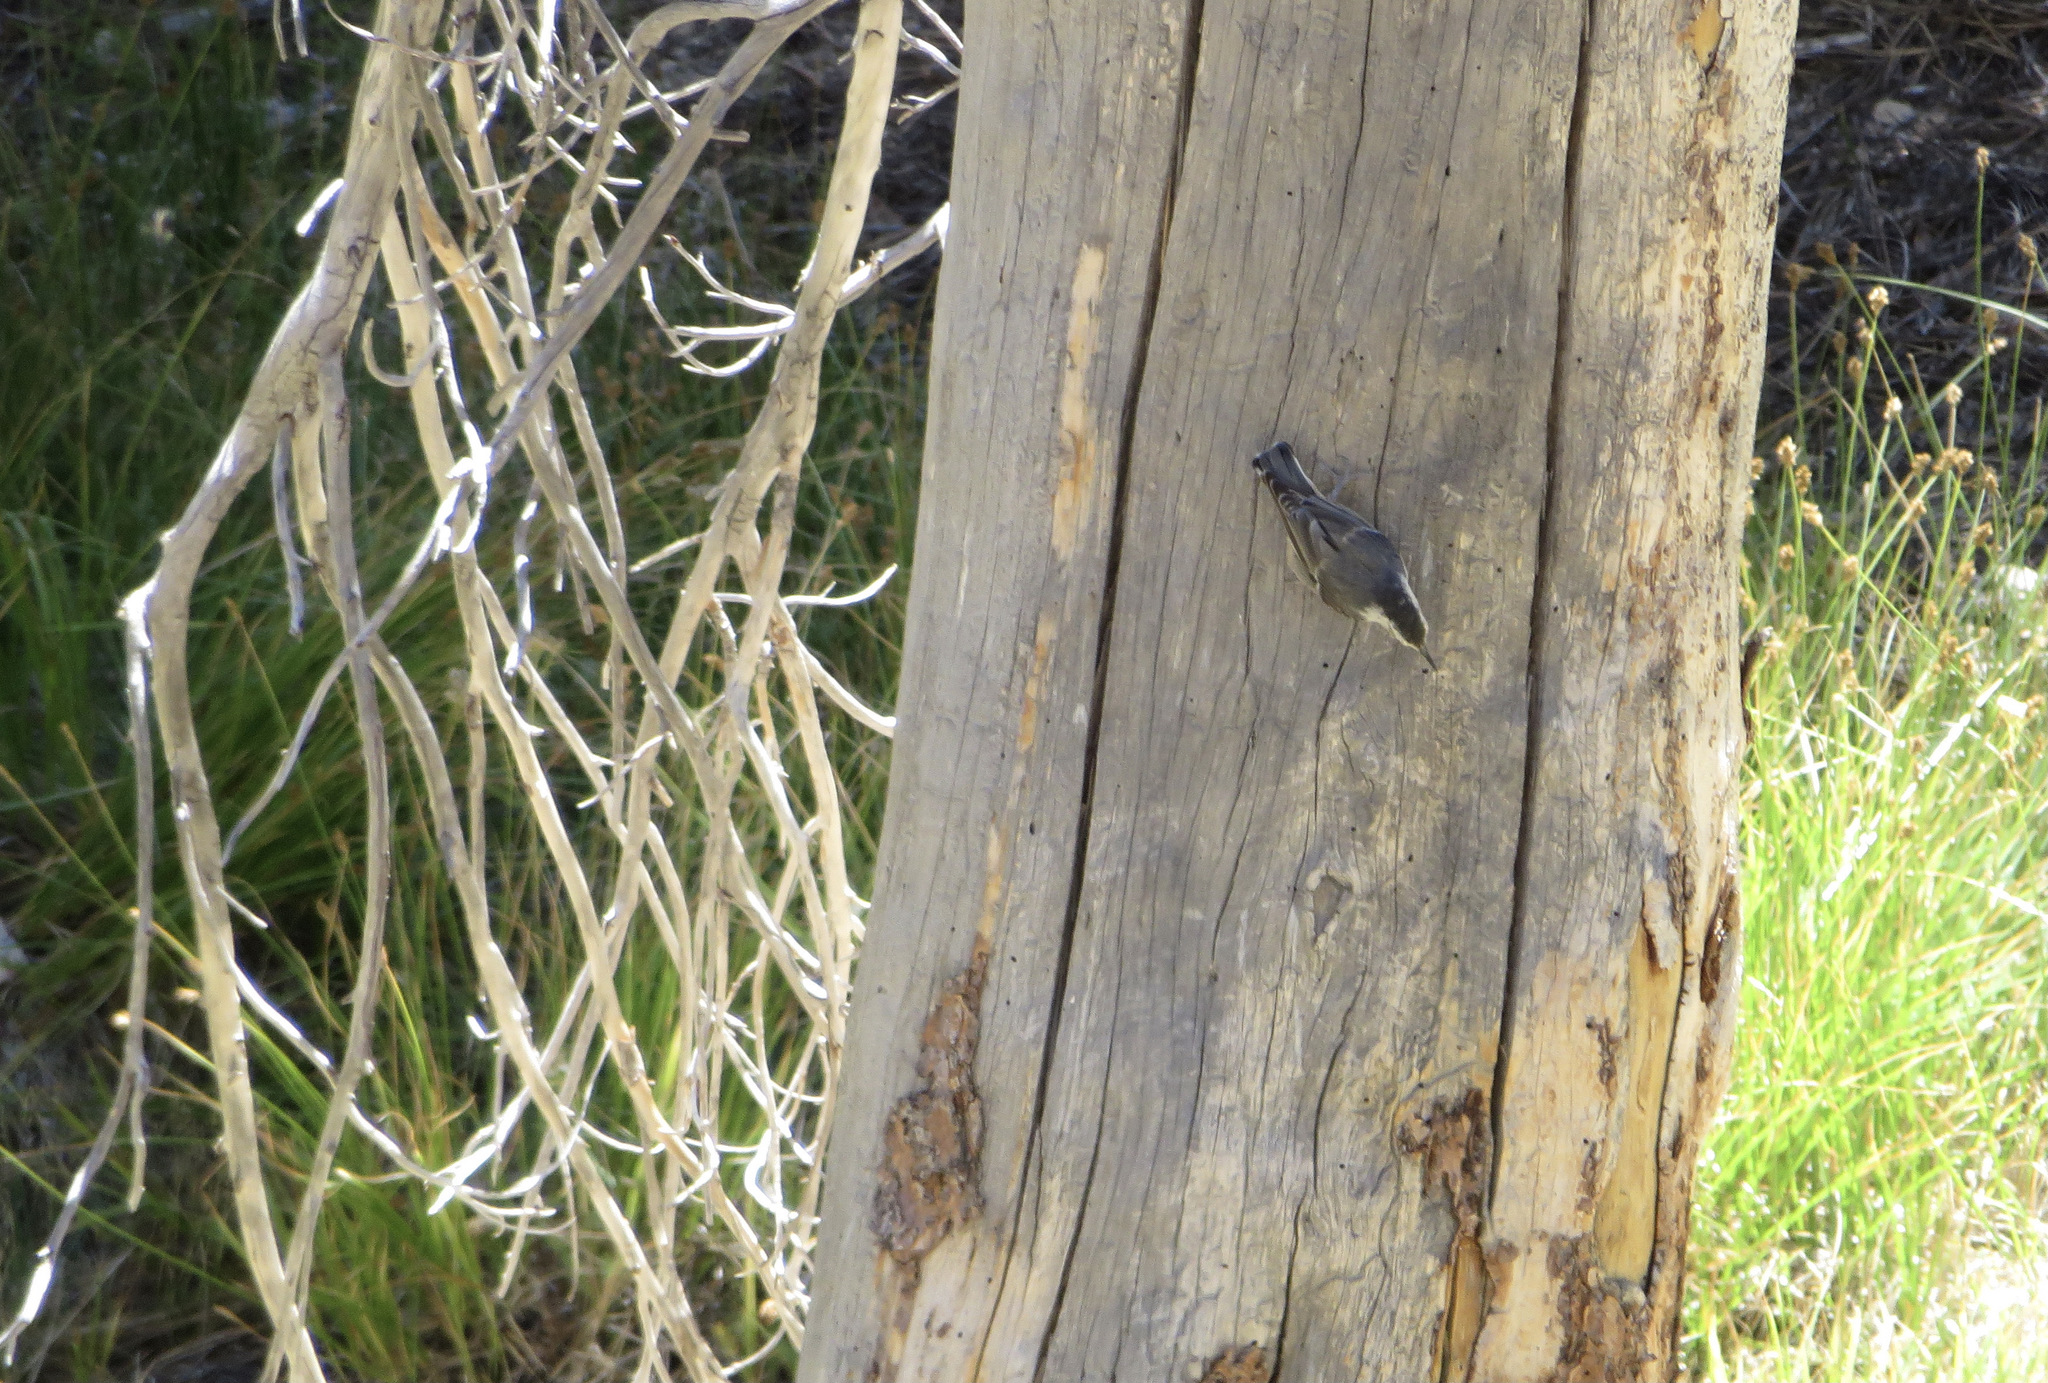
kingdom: Animalia
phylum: Chordata
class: Aves
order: Passeriformes
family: Sittidae
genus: Sitta
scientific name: Sitta carolinensis
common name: White-breasted nuthatch
